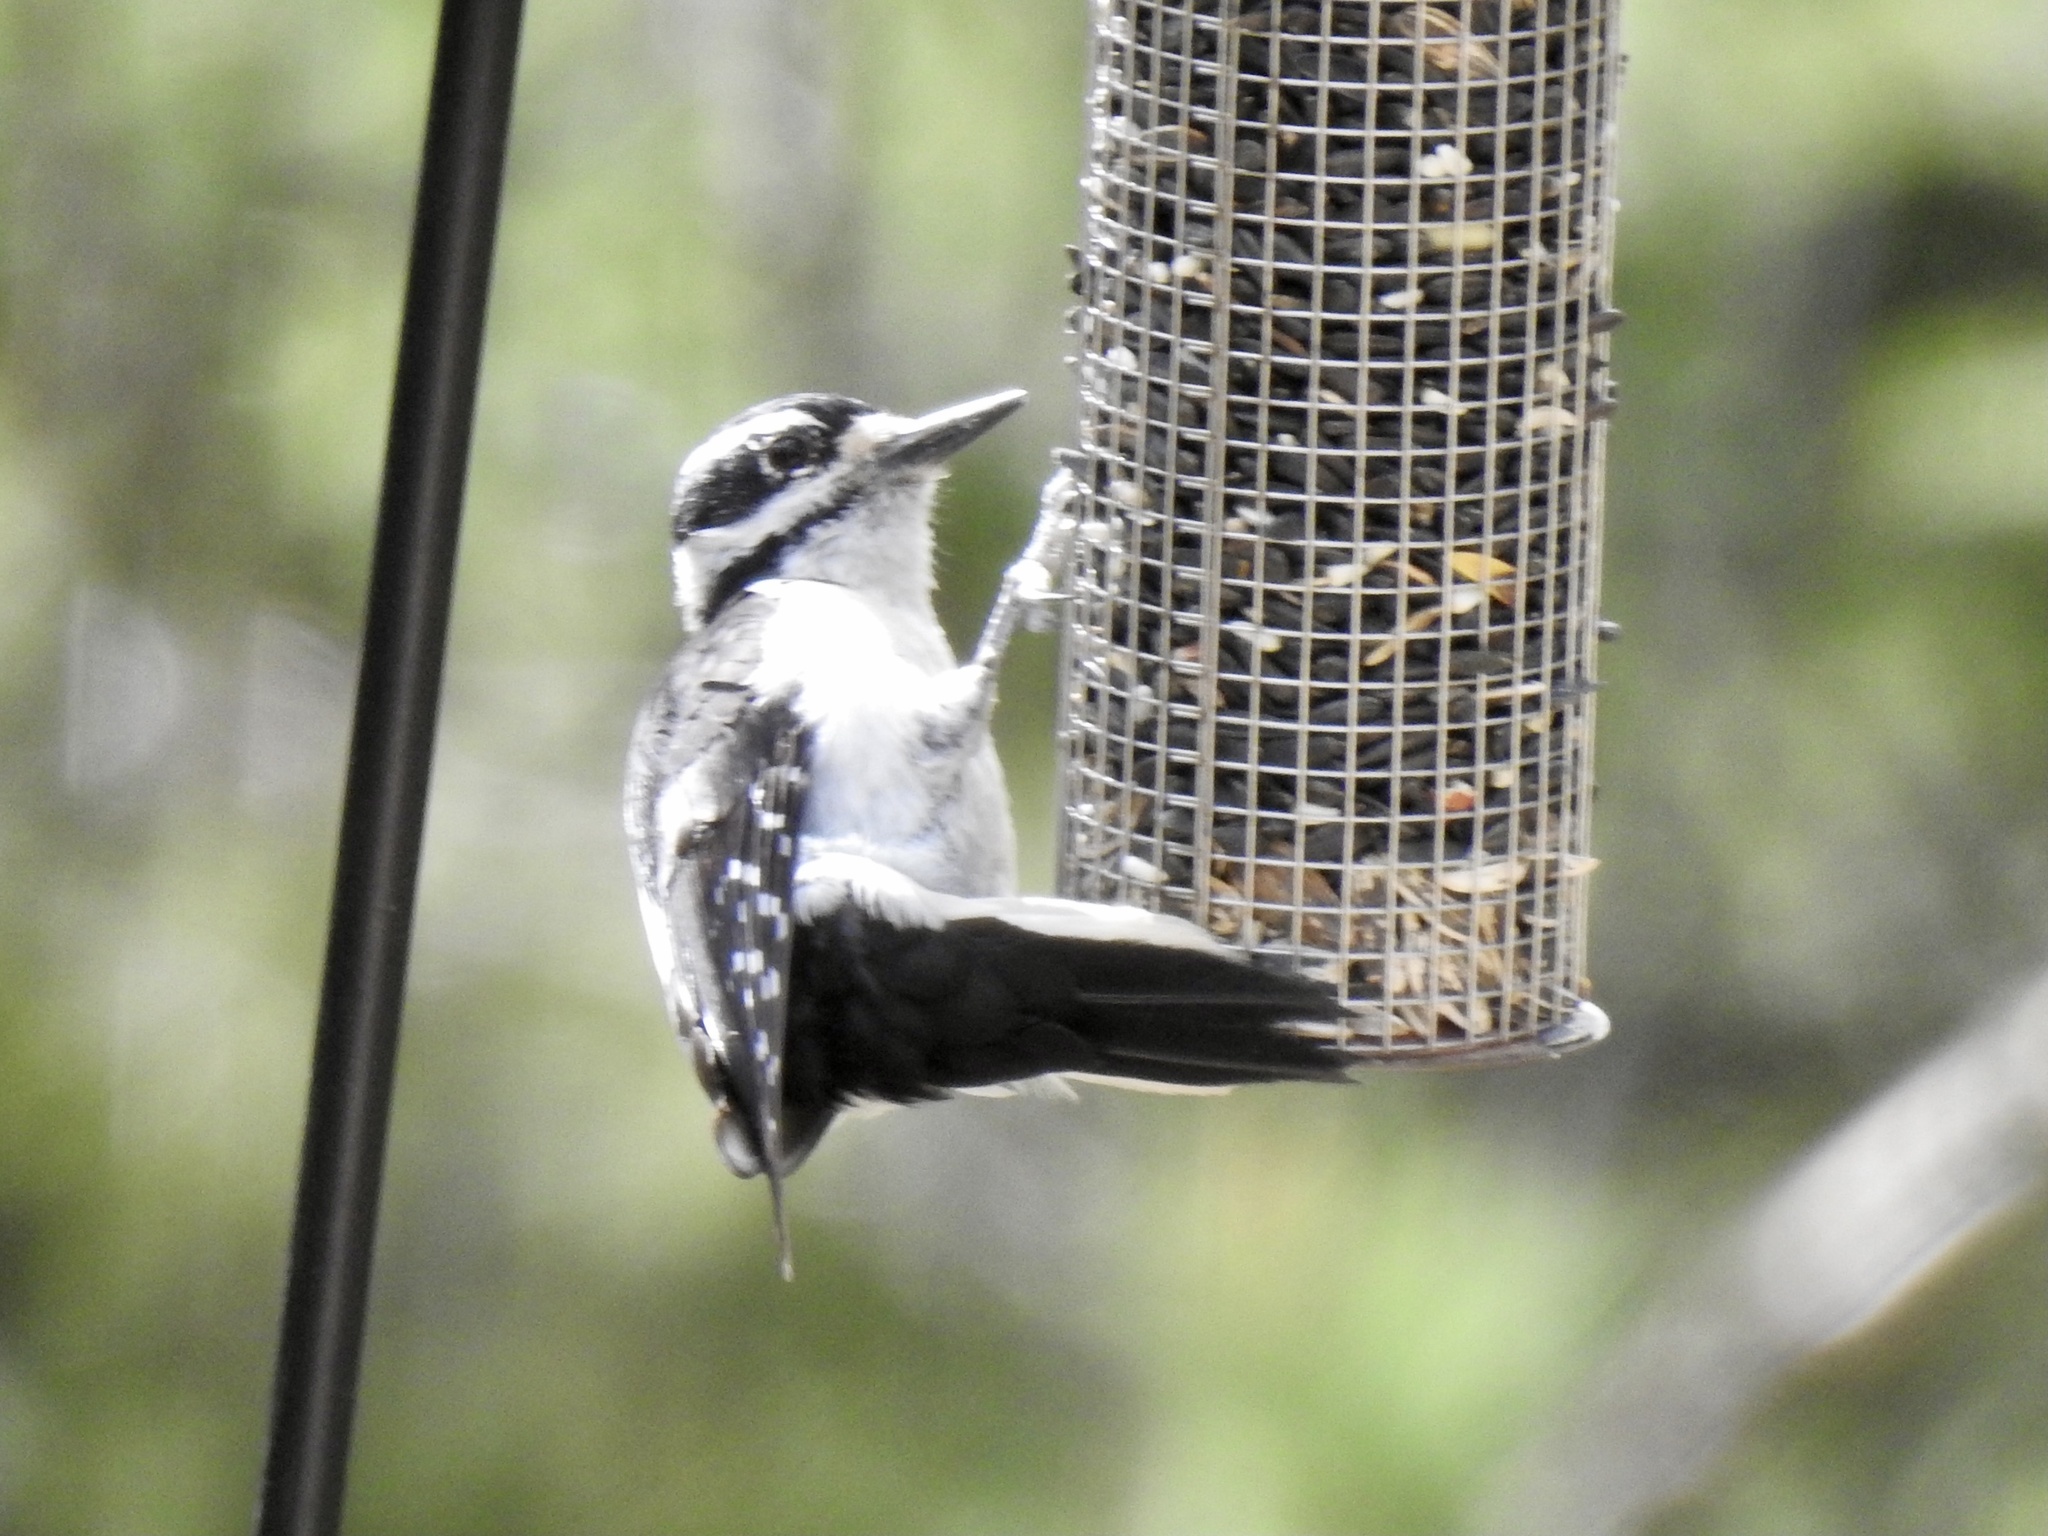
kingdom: Animalia
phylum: Chordata
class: Aves
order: Piciformes
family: Picidae
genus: Leuconotopicus
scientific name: Leuconotopicus villosus
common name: Hairy woodpecker
